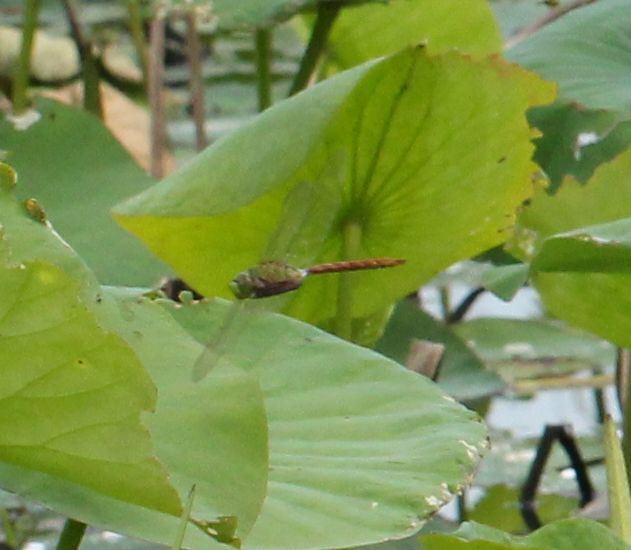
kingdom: Animalia
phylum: Arthropoda
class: Insecta
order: Odonata
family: Aeshnidae
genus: Anax
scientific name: Anax longipes
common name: Comet darner
